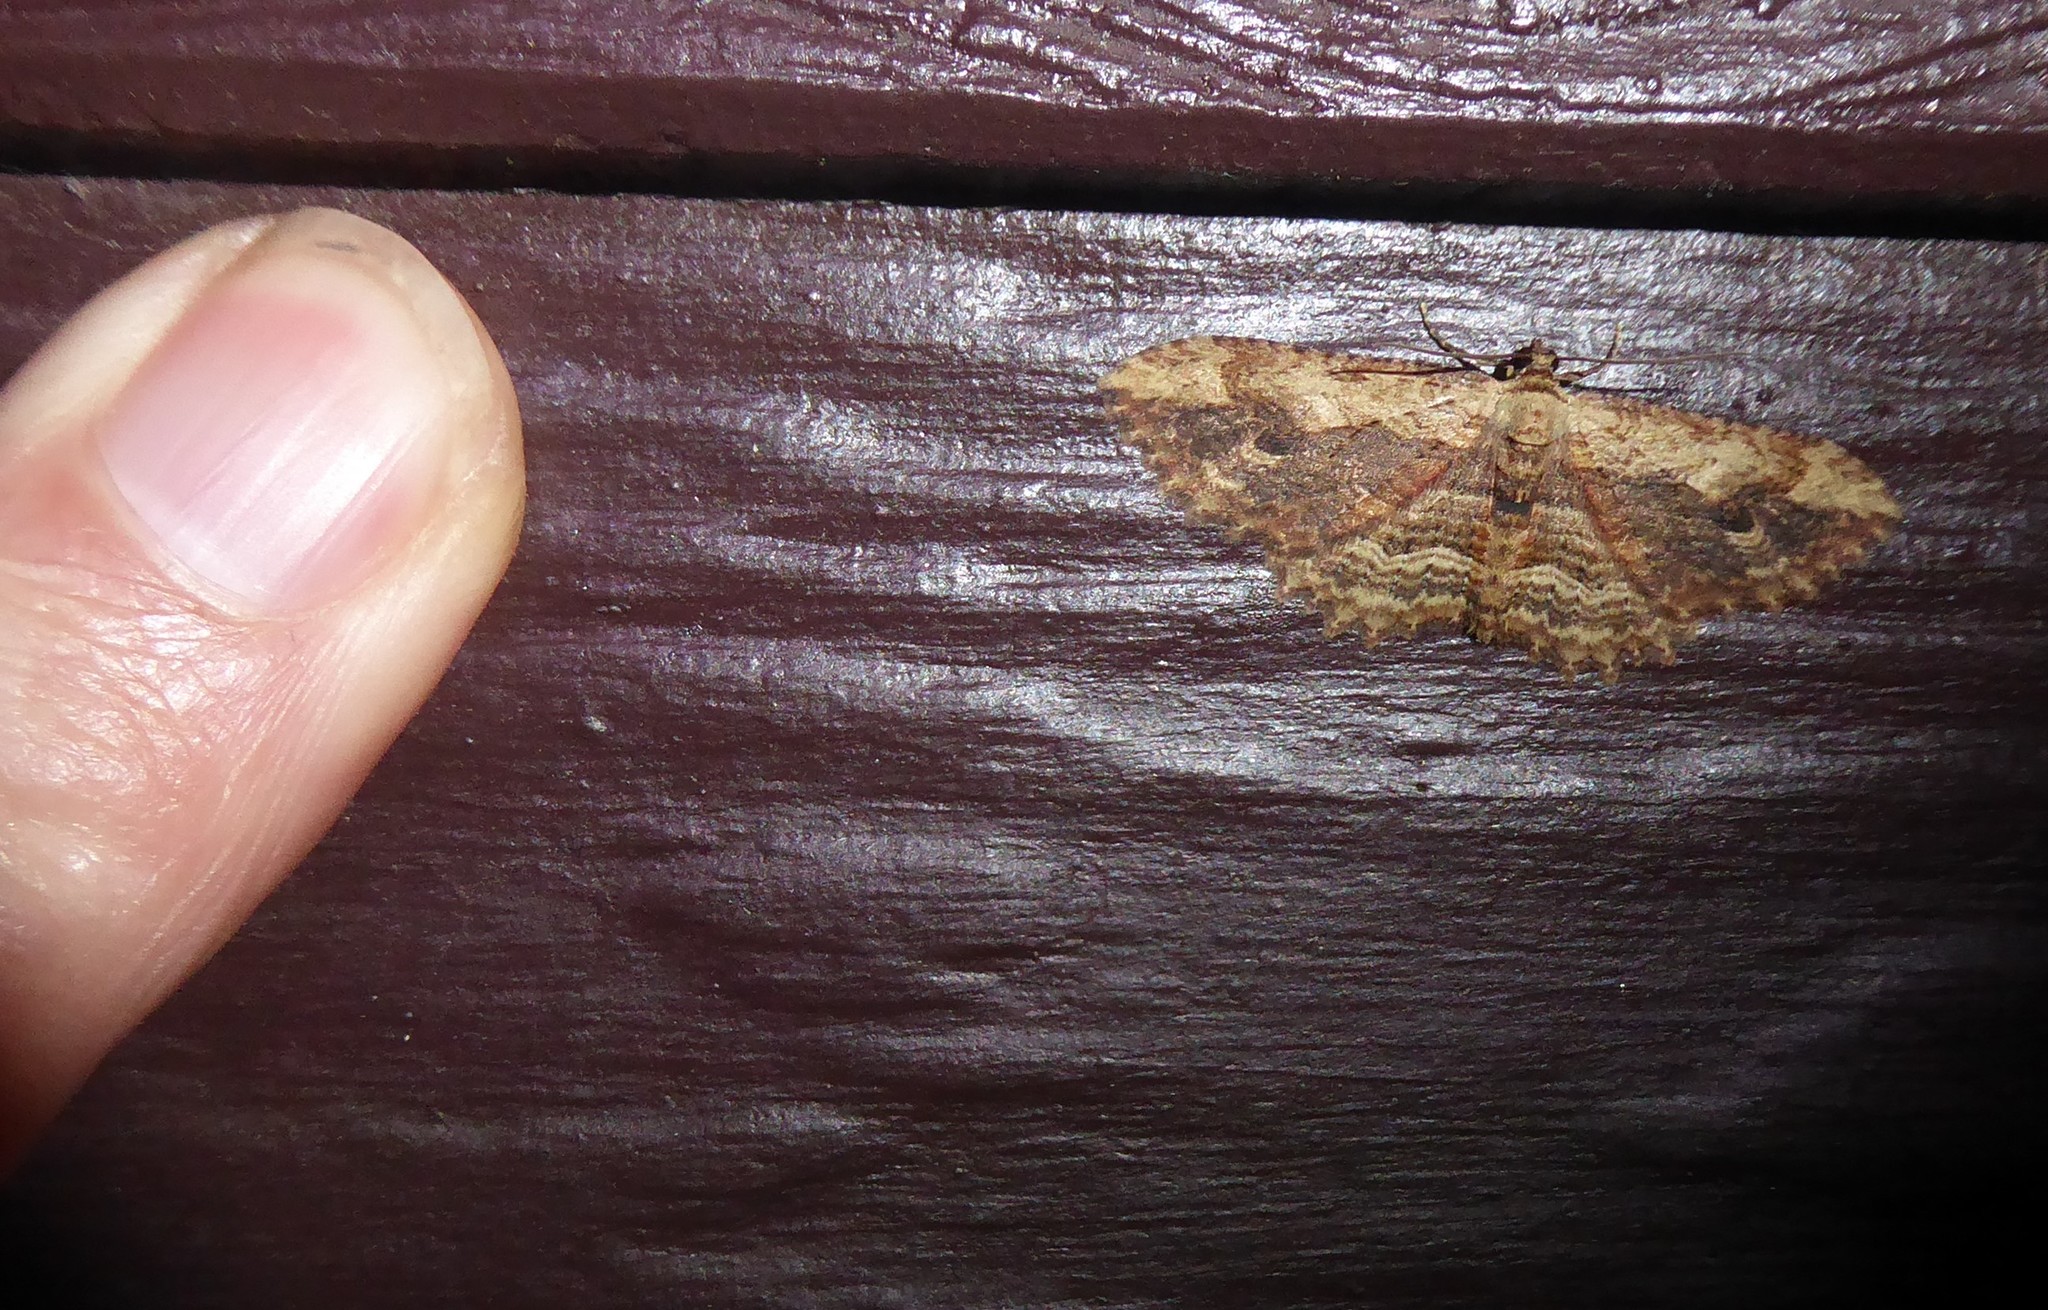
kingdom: Animalia
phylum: Arthropoda
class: Insecta
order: Lepidoptera
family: Geometridae
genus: Austrocidaria
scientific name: Austrocidaria bipartita
